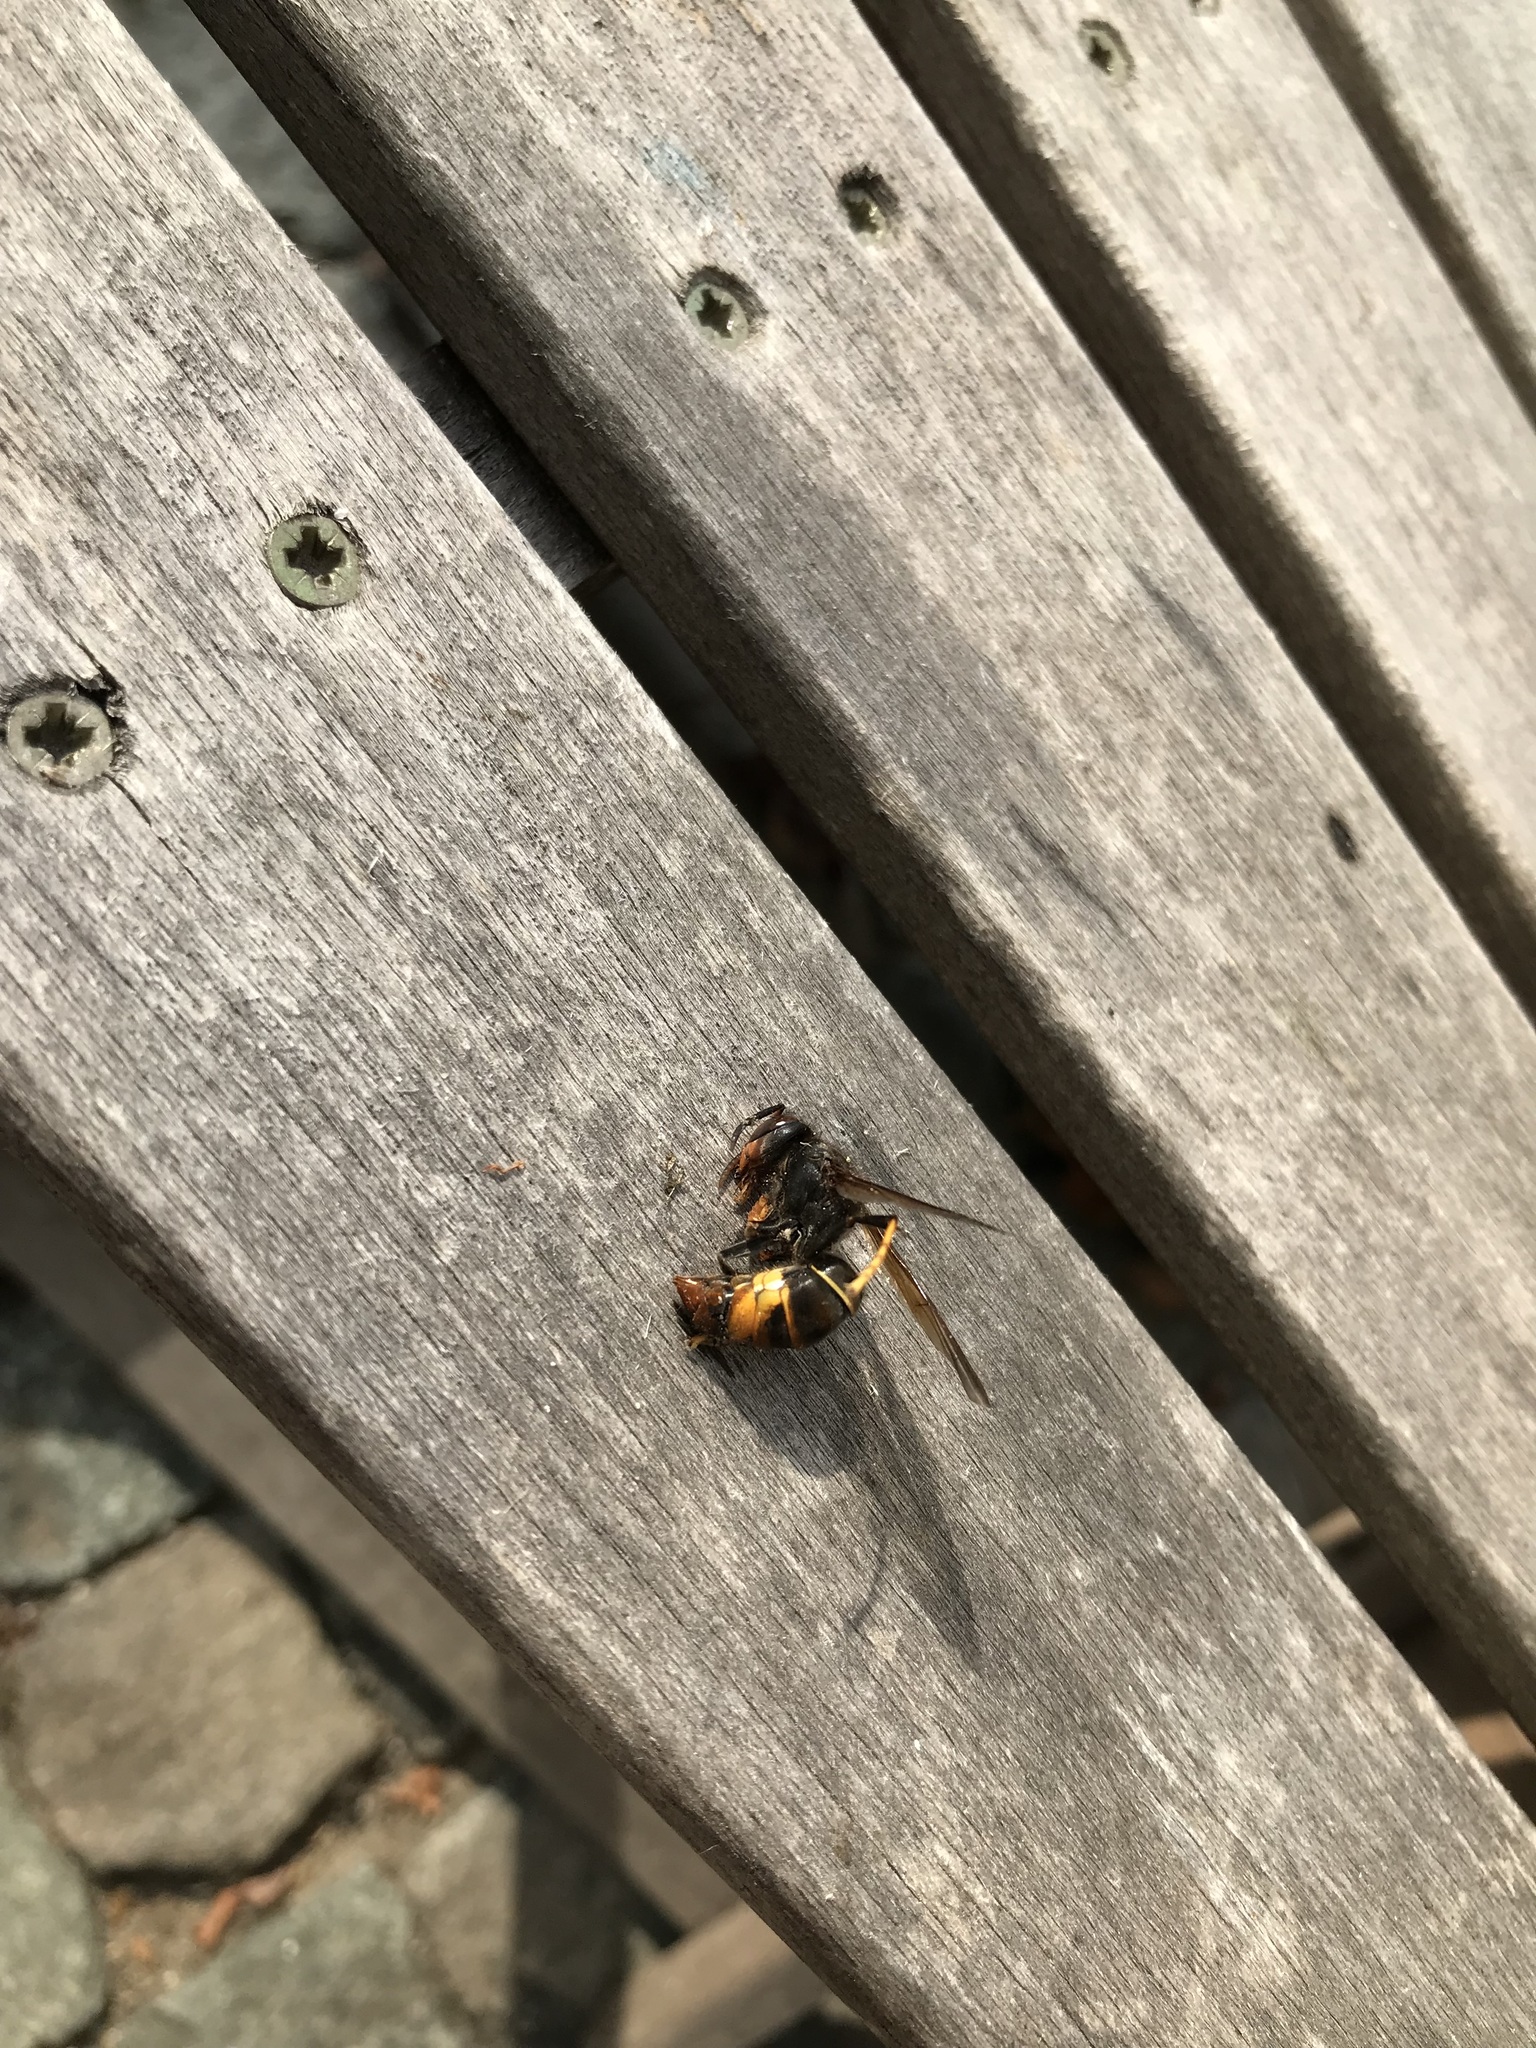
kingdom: Animalia
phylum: Arthropoda
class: Insecta
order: Hymenoptera
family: Vespidae
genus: Vespa
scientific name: Vespa velutina
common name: Asian hornet
